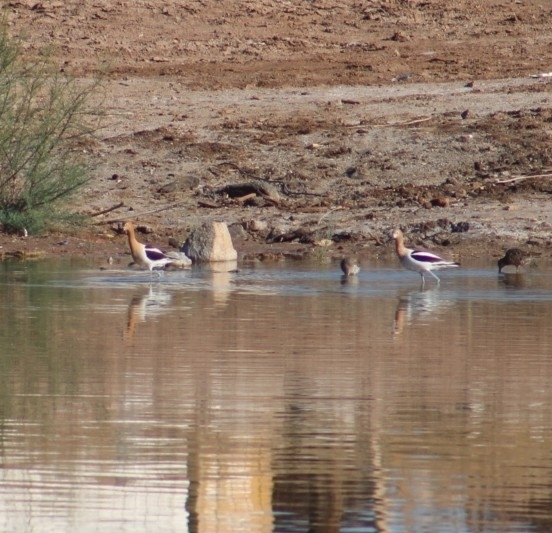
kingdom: Animalia
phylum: Chordata
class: Aves
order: Charadriiformes
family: Recurvirostridae
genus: Recurvirostra
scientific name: Recurvirostra americana
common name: American avocet
